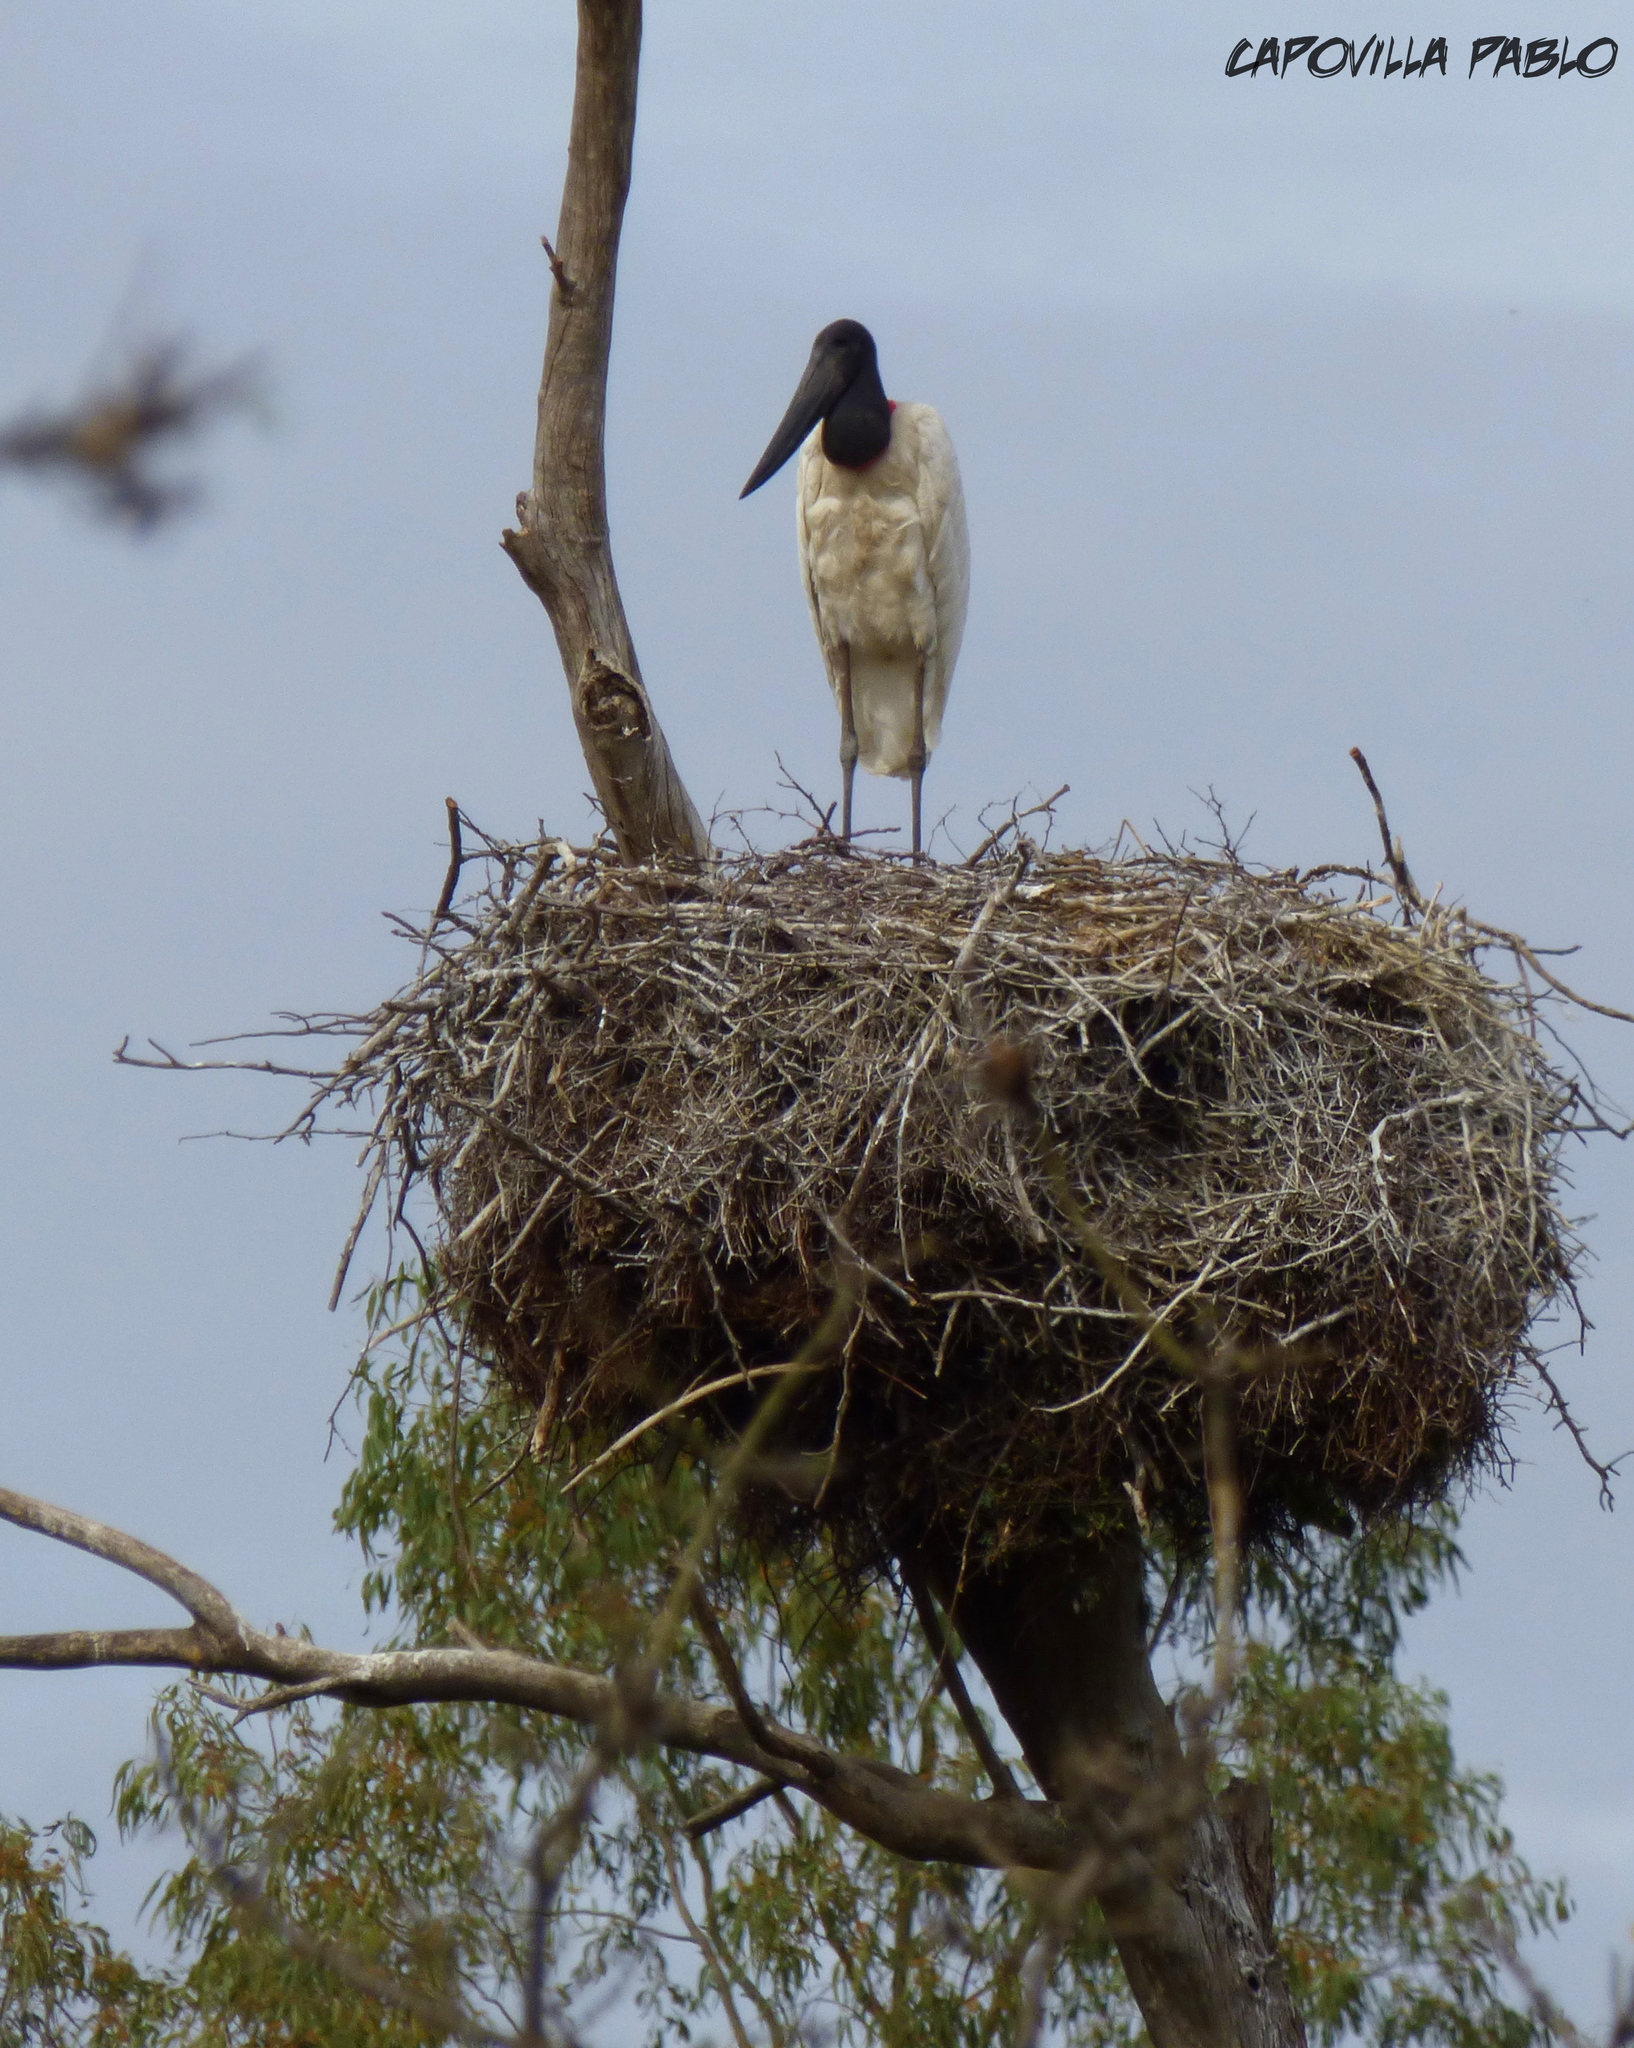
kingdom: Animalia
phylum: Chordata
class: Aves
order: Ciconiiformes
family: Ciconiidae
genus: Jabiru
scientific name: Jabiru mycteria
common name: Jabiru
